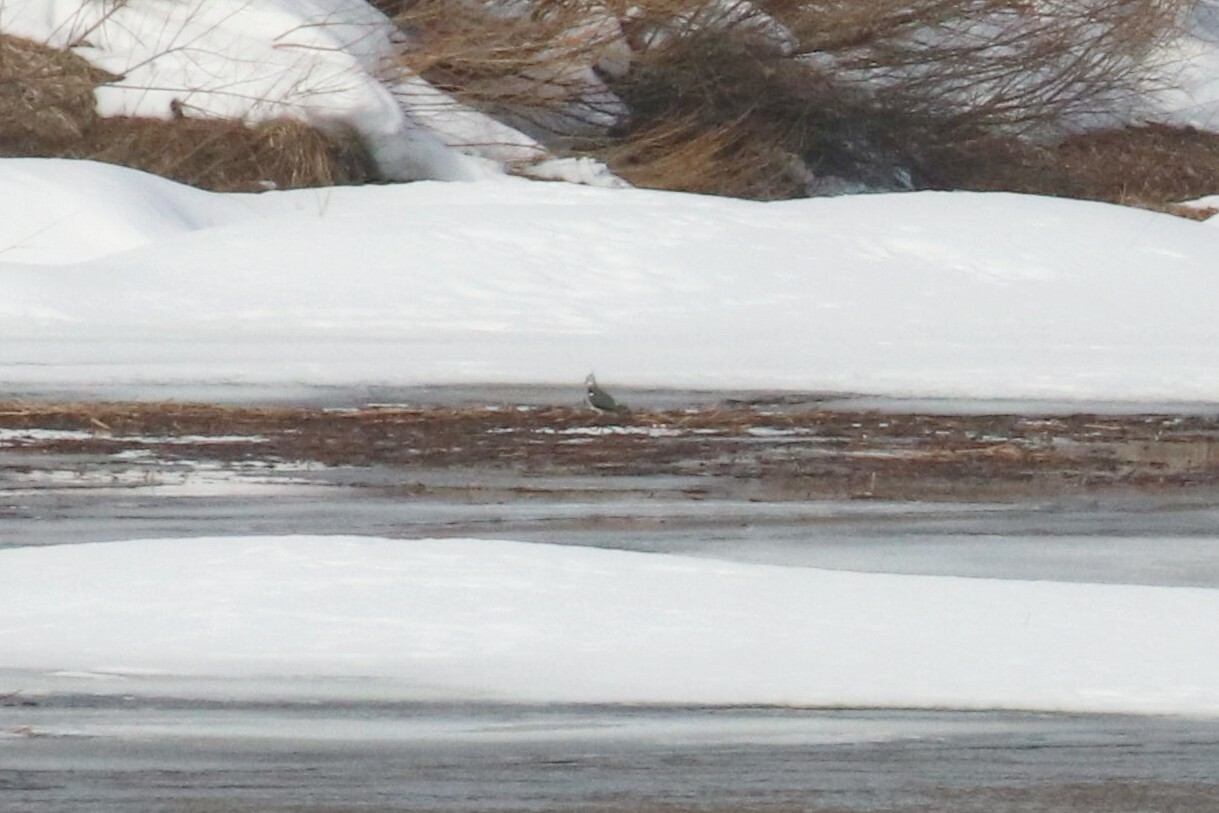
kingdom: Animalia
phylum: Chordata
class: Aves
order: Charadriiformes
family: Charadriidae
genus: Vanellus
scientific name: Vanellus vanellus
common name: Northern lapwing
